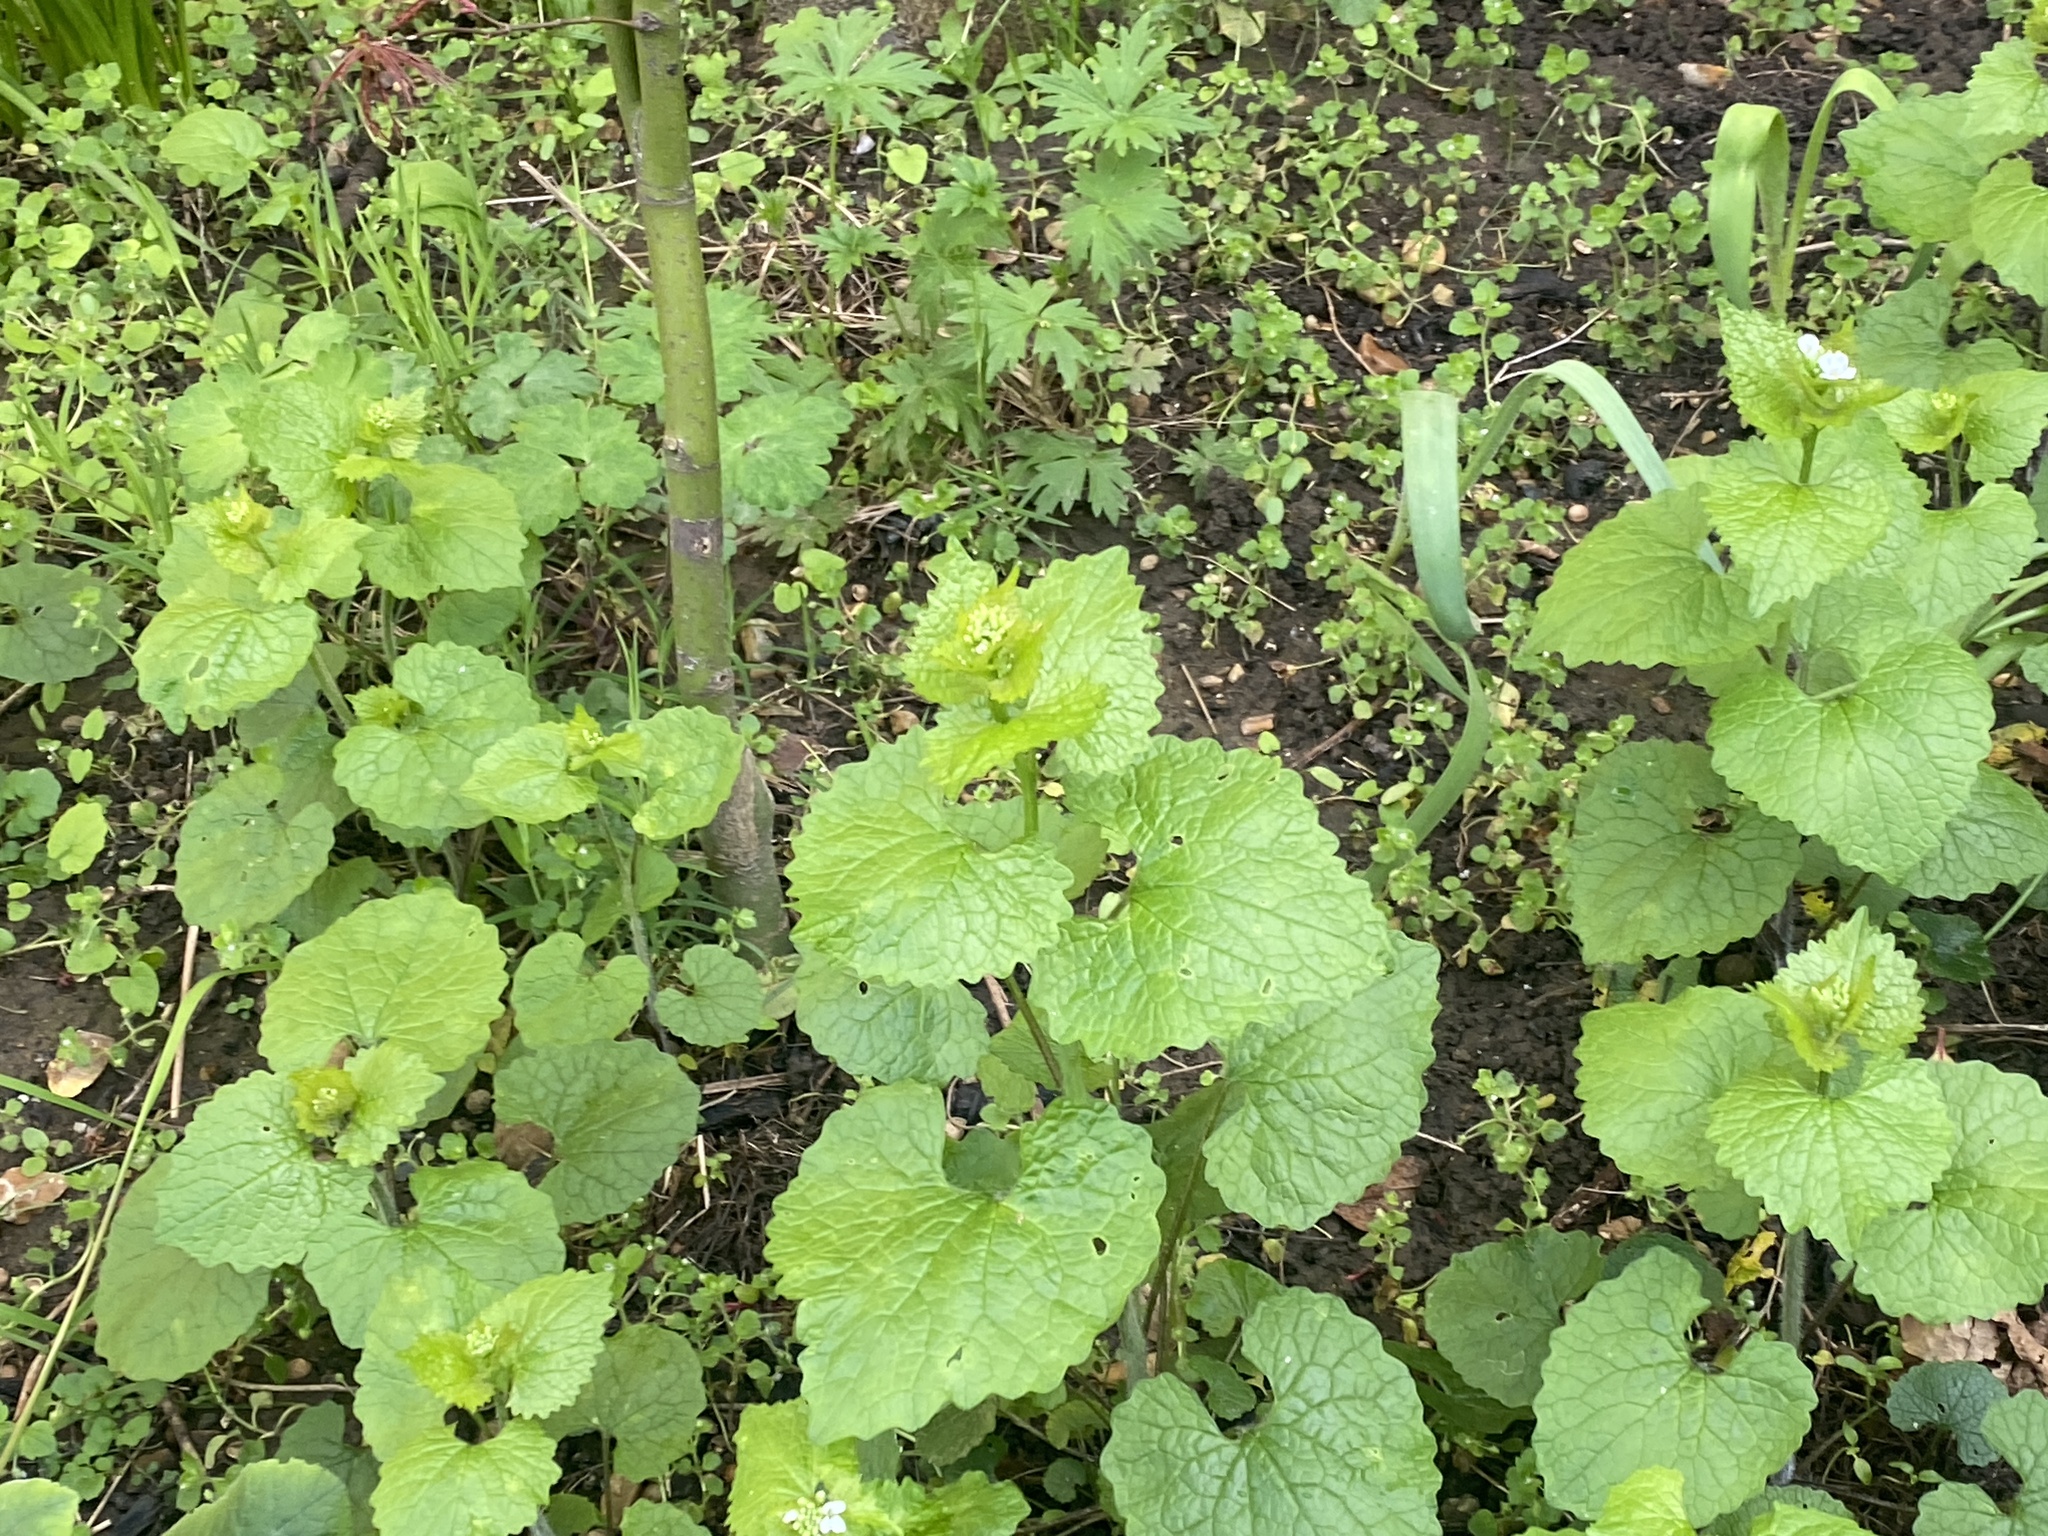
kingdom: Plantae
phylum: Tracheophyta
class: Magnoliopsida
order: Brassicales
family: Brassicaceae
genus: Alliaria
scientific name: Alliaria petiolata
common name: Garlic mustard
